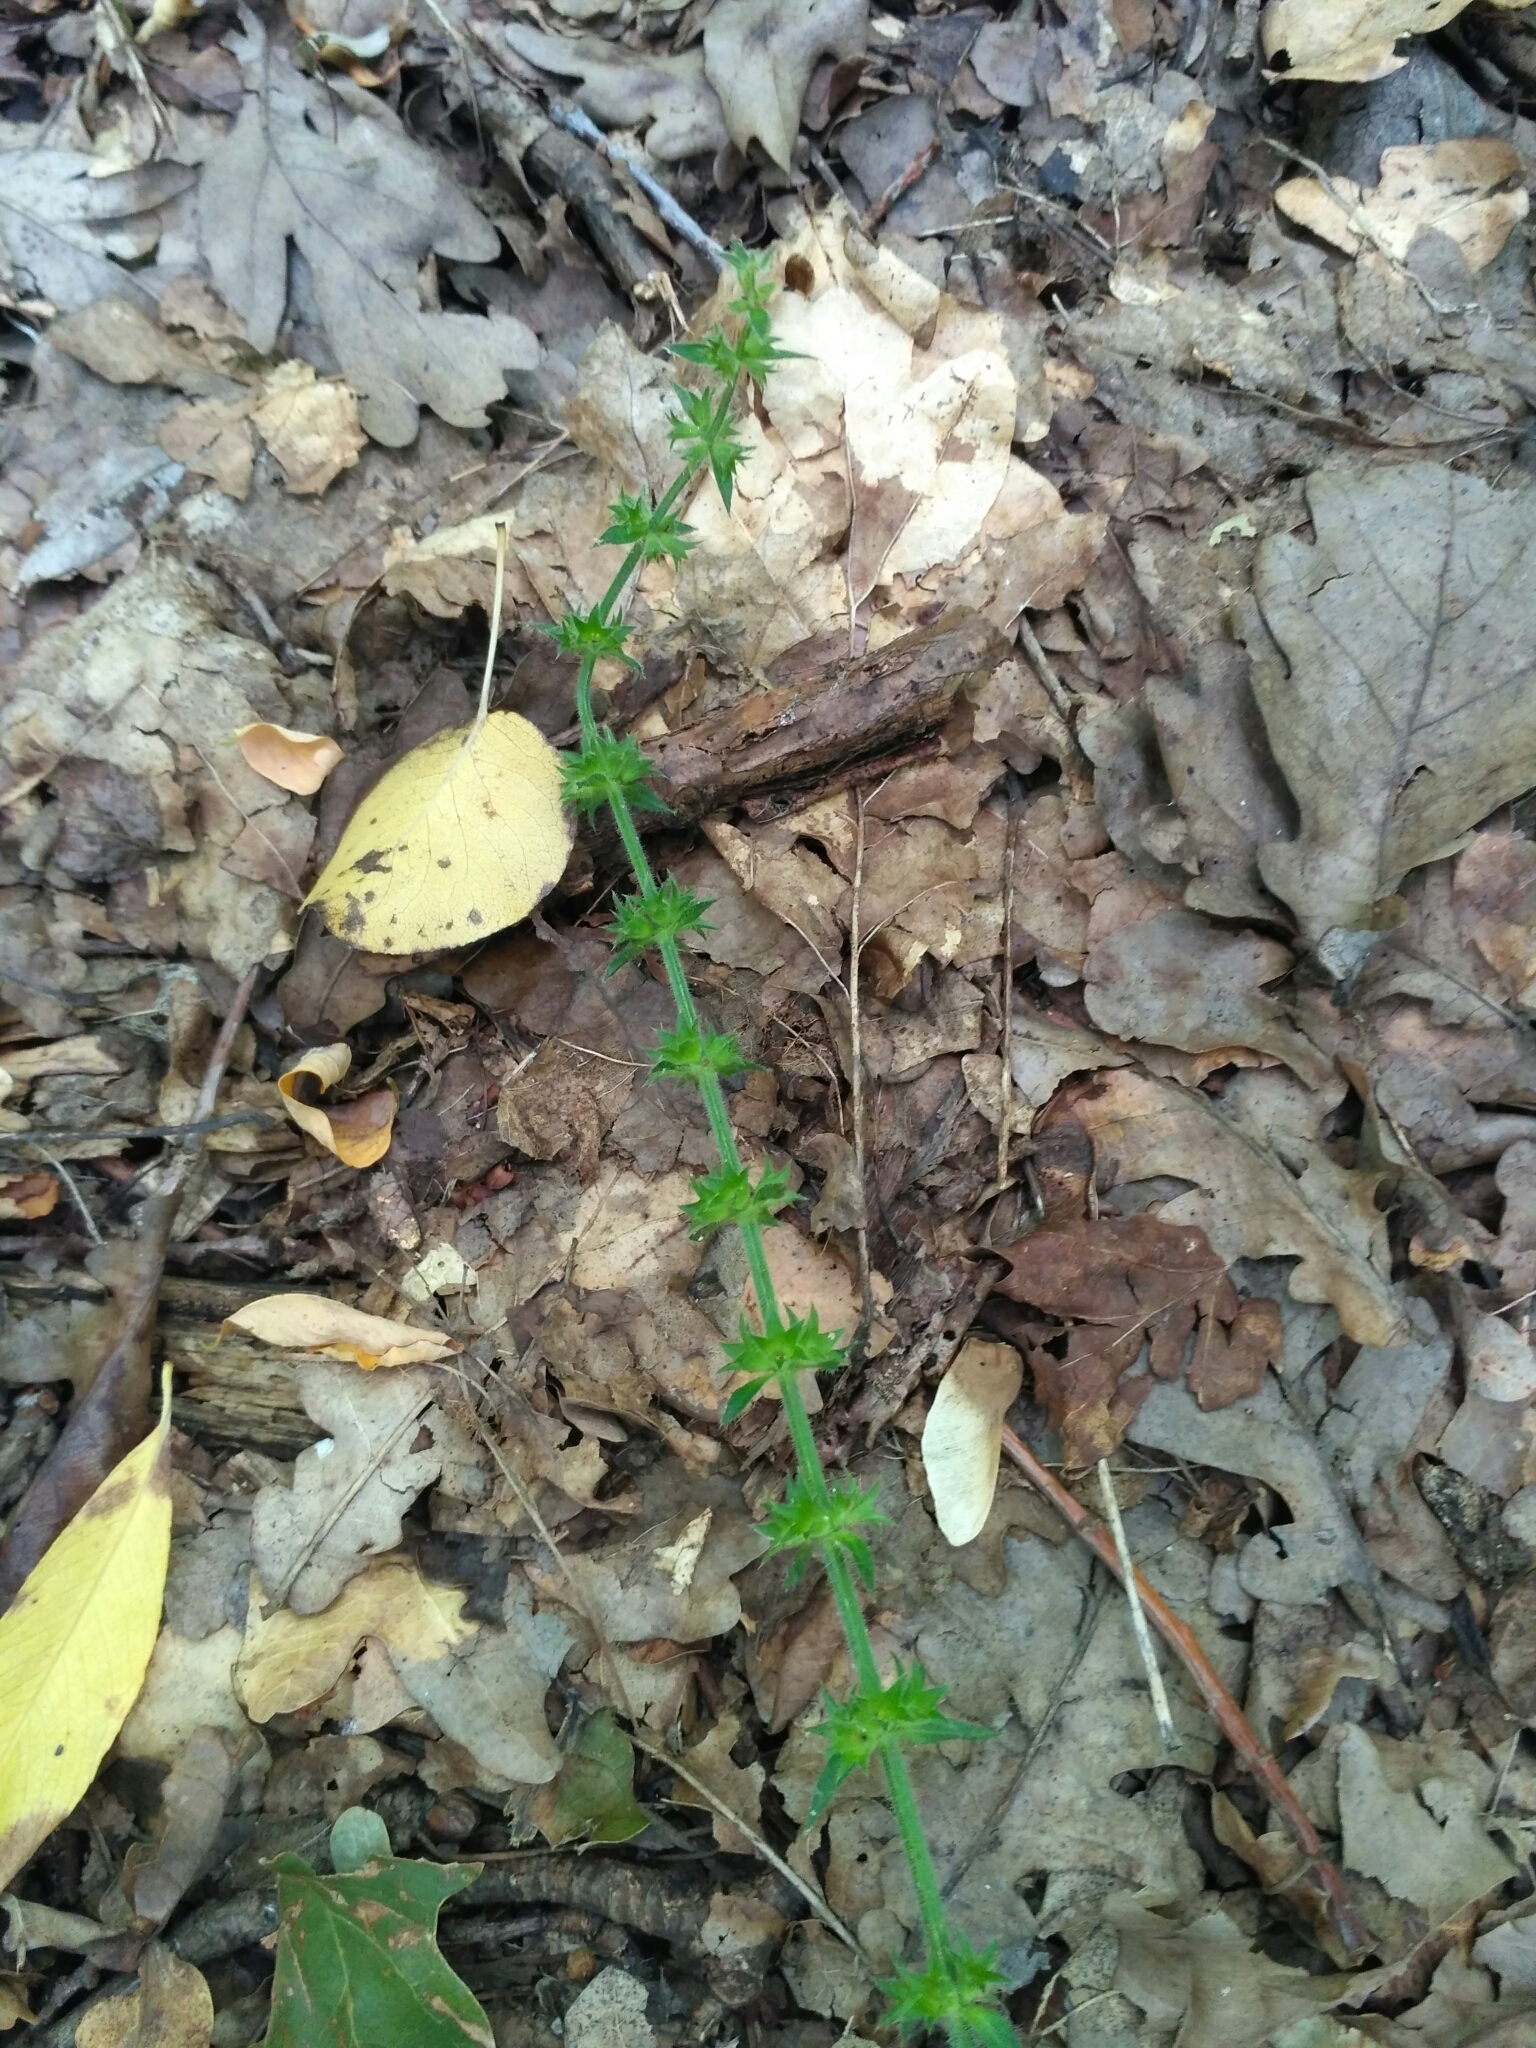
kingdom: Plantae
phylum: Tracheophyta
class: Magnoliopsida
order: Lamiales
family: Lamiaceae
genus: Stachys
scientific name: Stachys sylvatica
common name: Hedge woundwort
